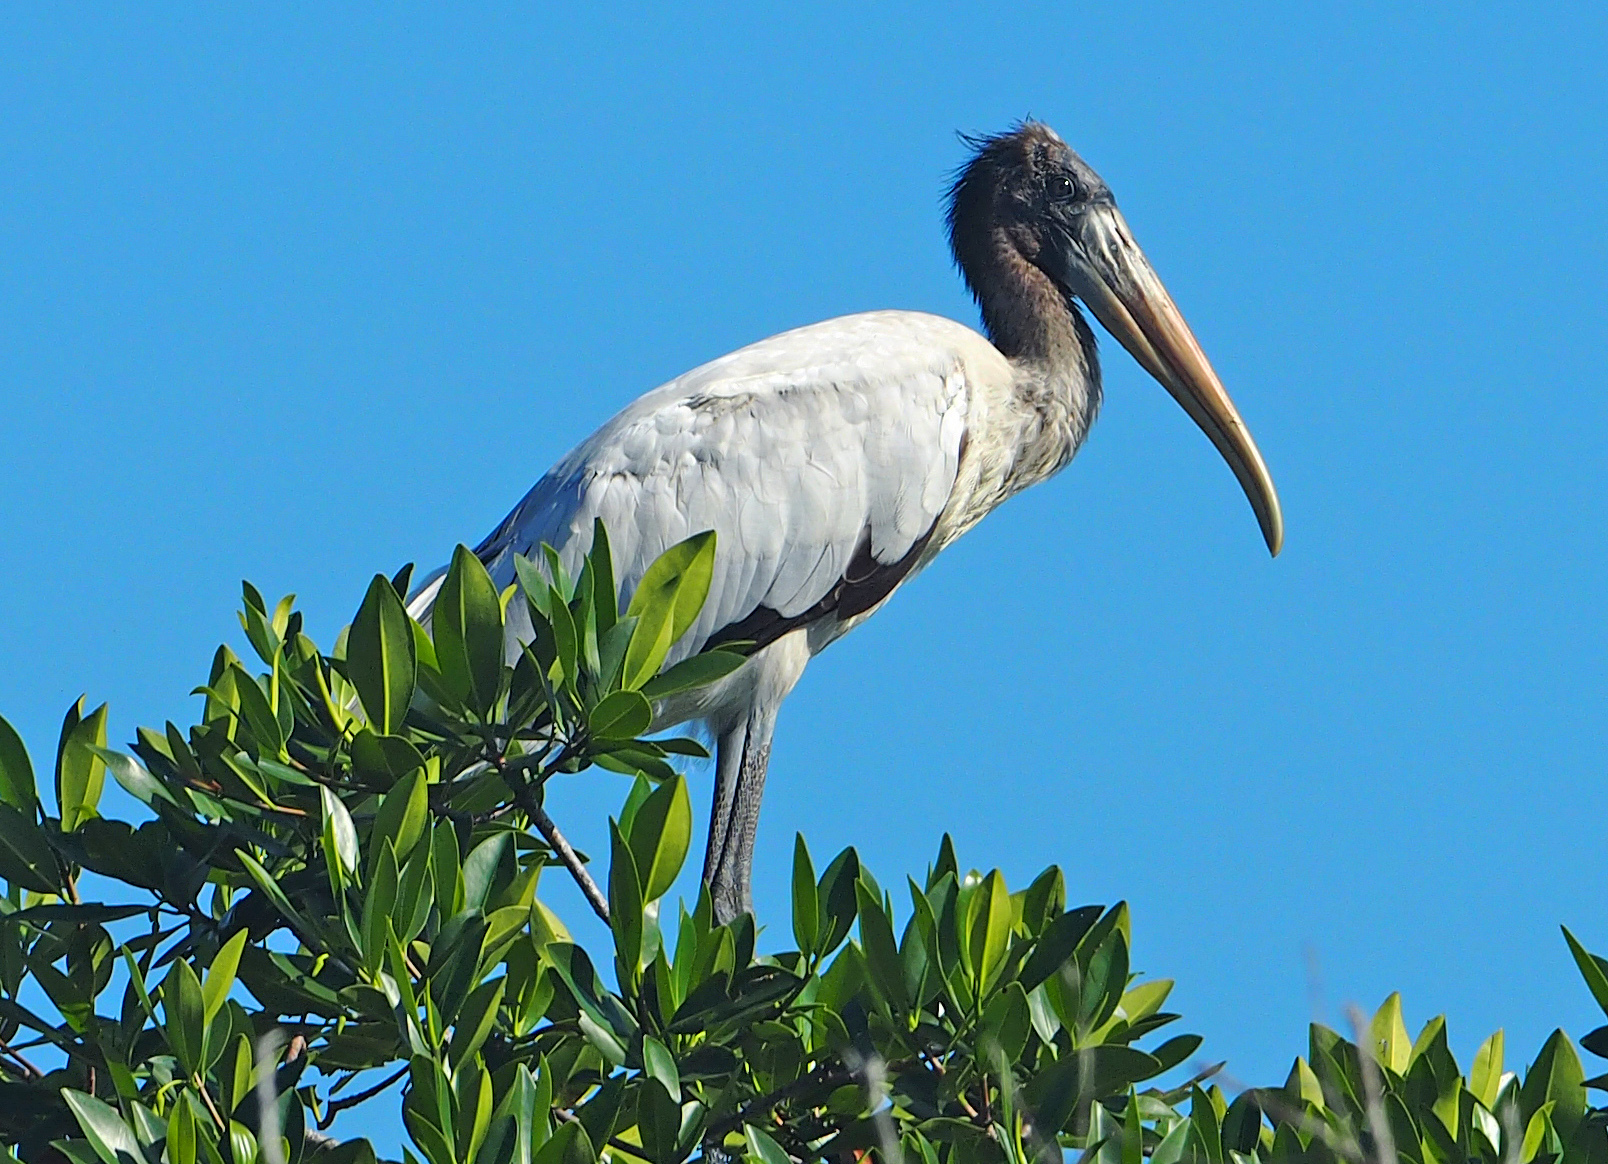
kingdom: Animalia
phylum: Chordata
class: Aves
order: Ciconiiformes
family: Ciconiidae
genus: Mycteria
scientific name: Mycteria americana
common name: Wood stork
